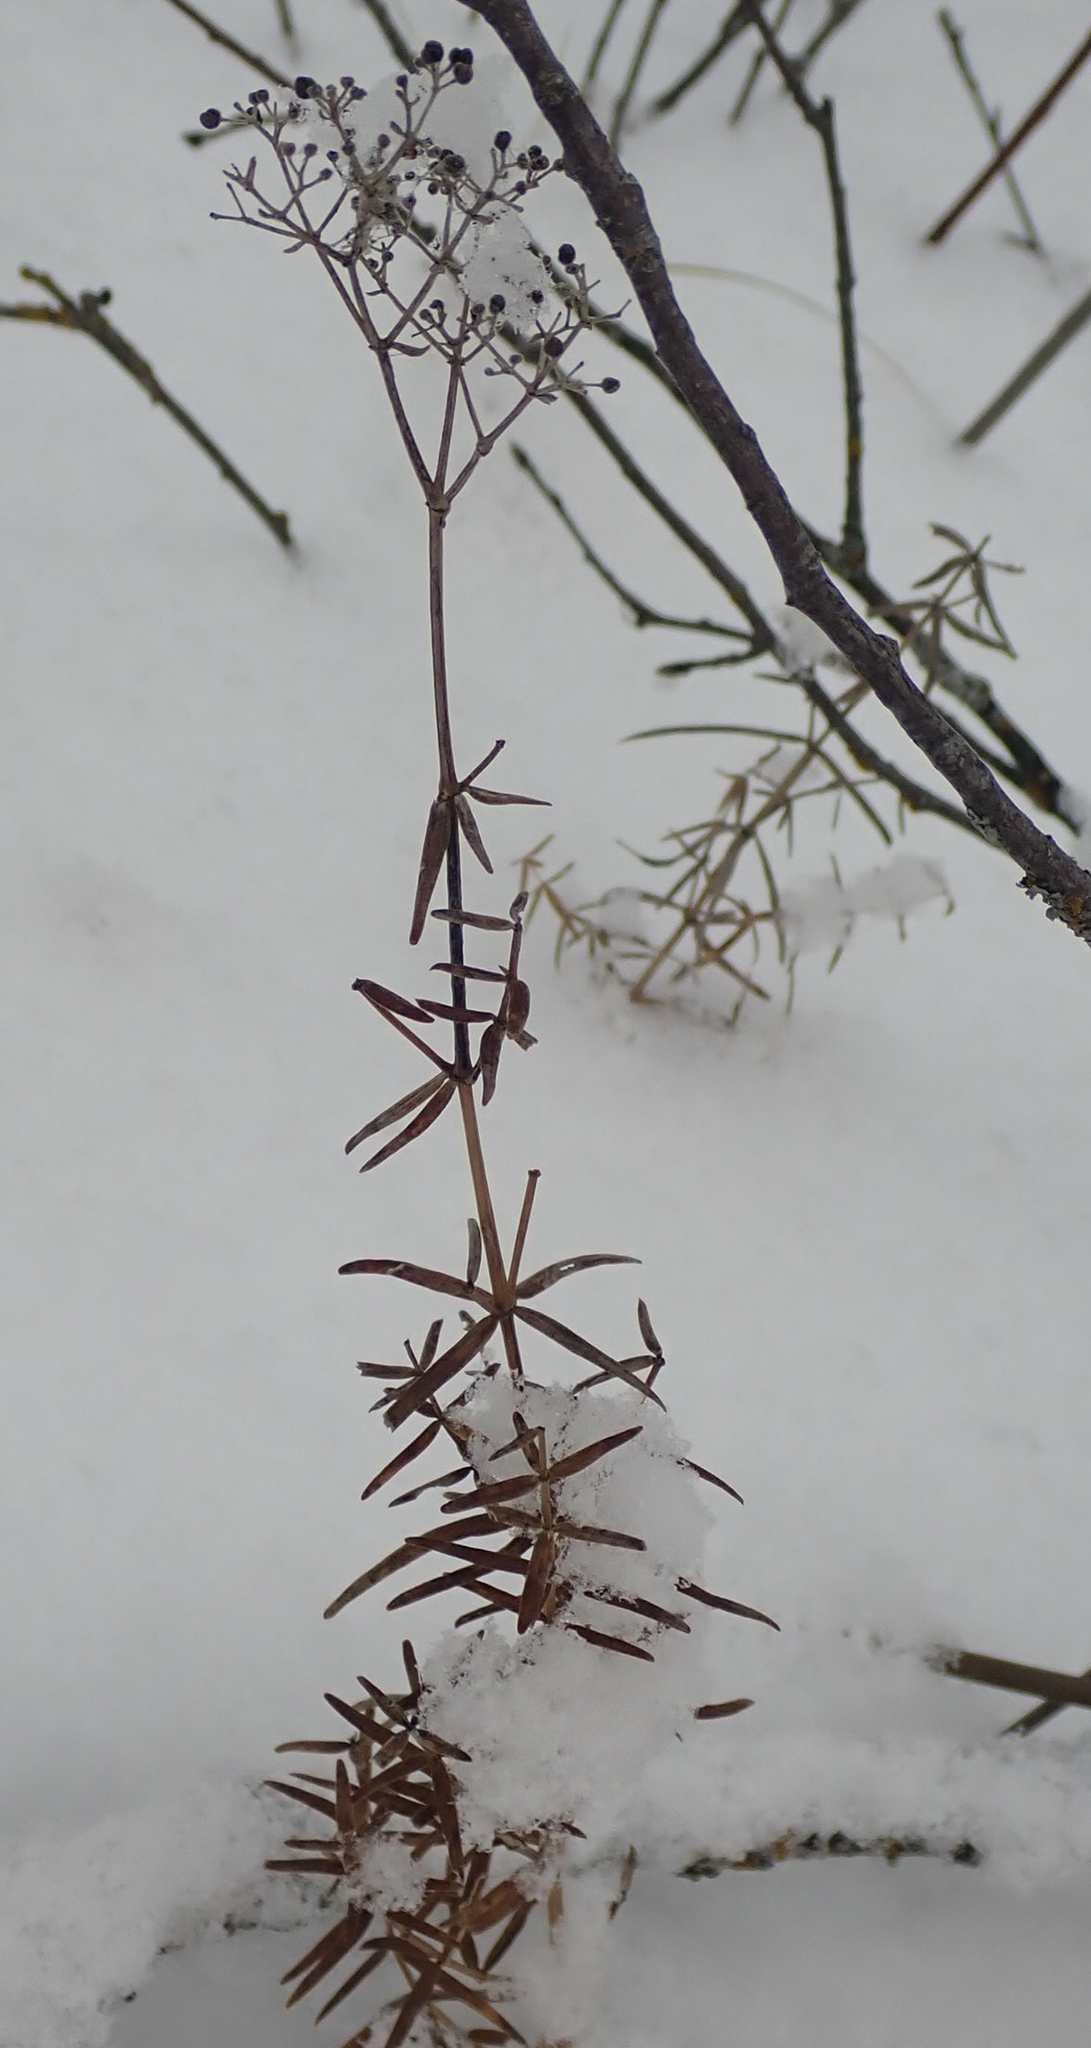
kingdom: Plantae
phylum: Tracheophyta
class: Magnoliopsida
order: Gentianales
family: Rubiaceae
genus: Galium
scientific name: Galium boreale
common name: Northern bedstraw
